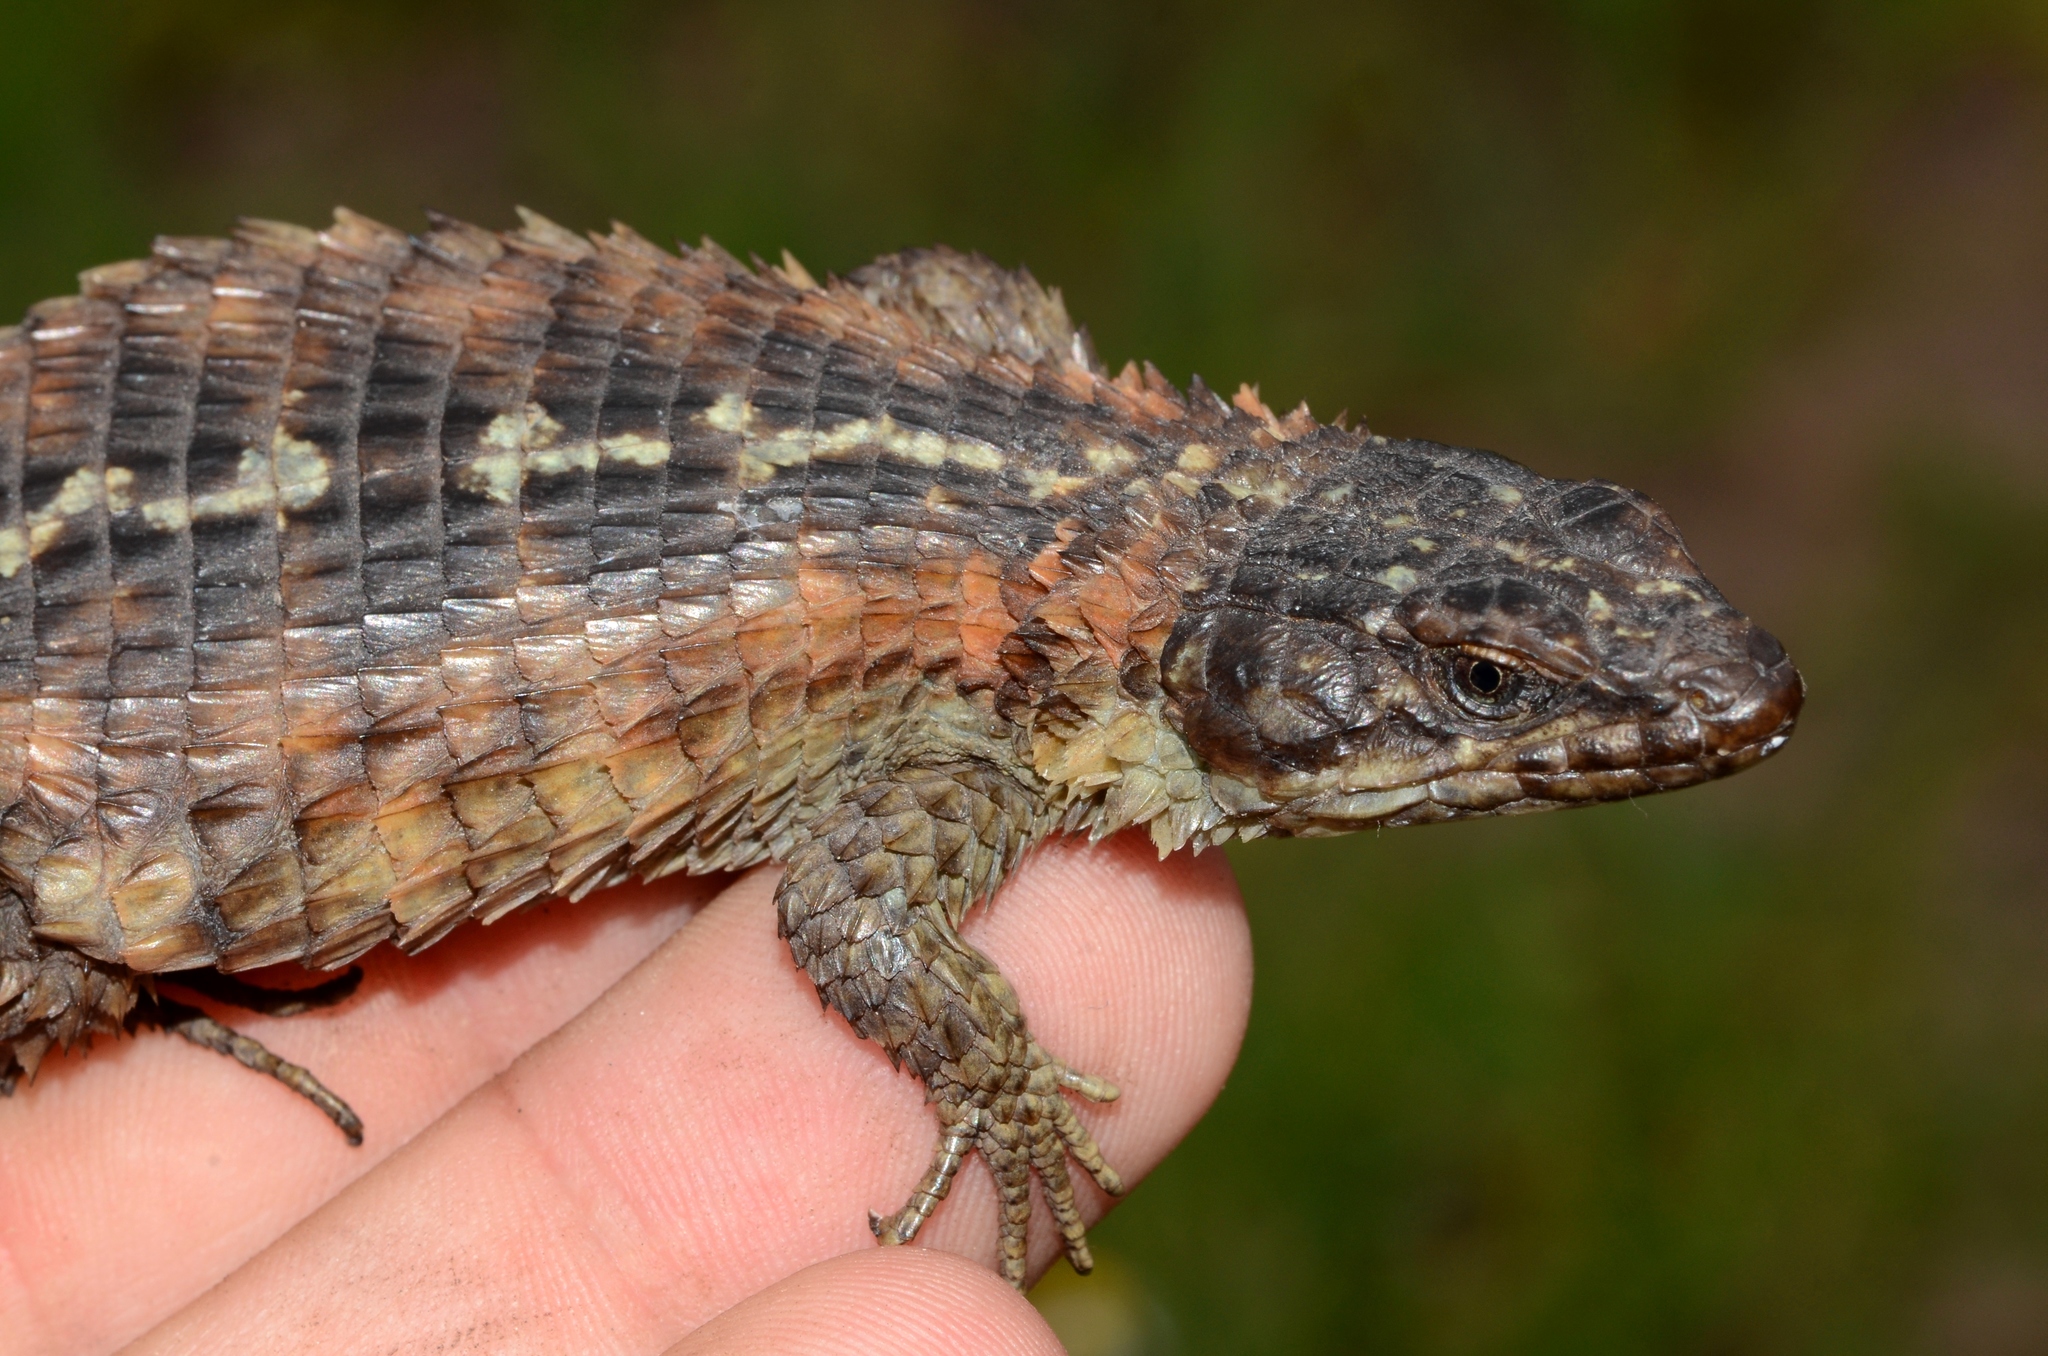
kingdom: Animalia
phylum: Chordata
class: Squamata
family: Cordylidae
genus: Cordylus
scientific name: Cordylus cordylus
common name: Cape girdled lizard
